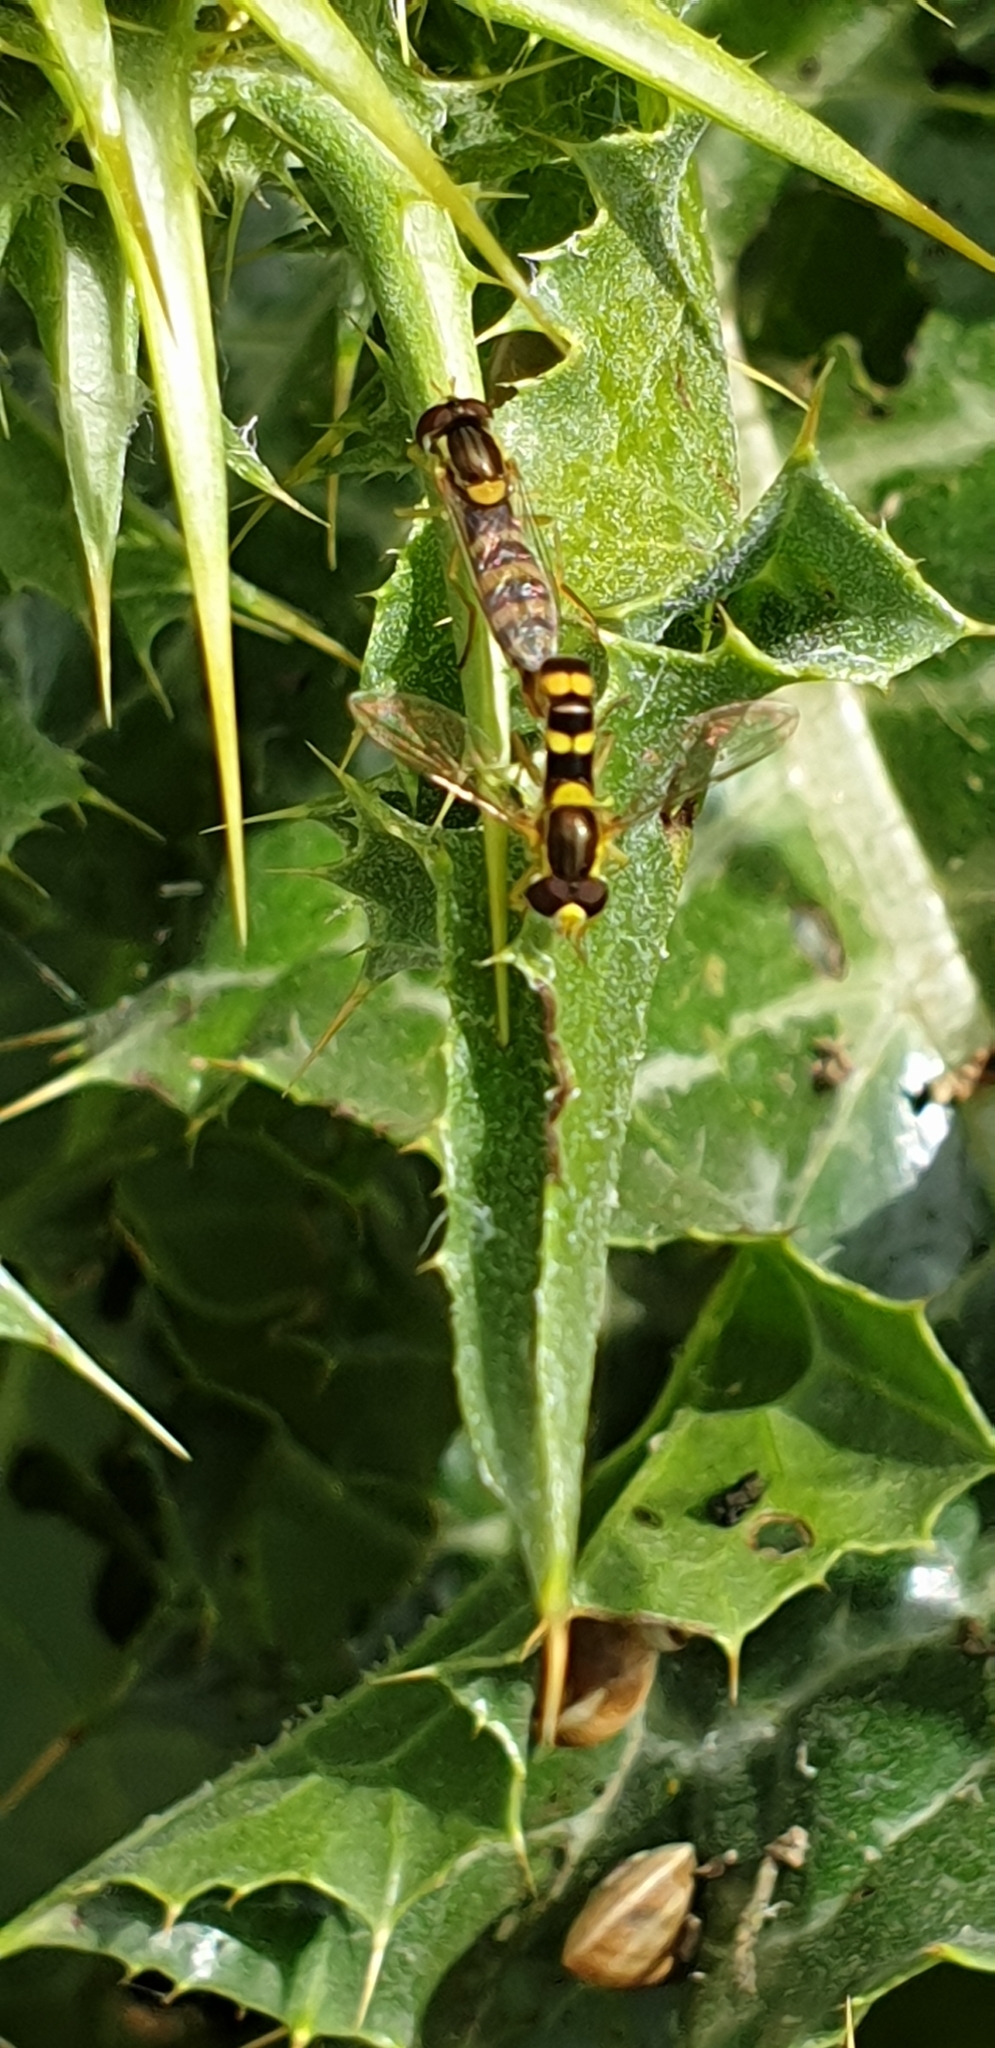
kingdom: Animalia
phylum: Arthropoda
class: Insecta
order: Diptera
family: Syrphidae
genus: Sphaerophoria
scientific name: Sphaerophoria scripta
